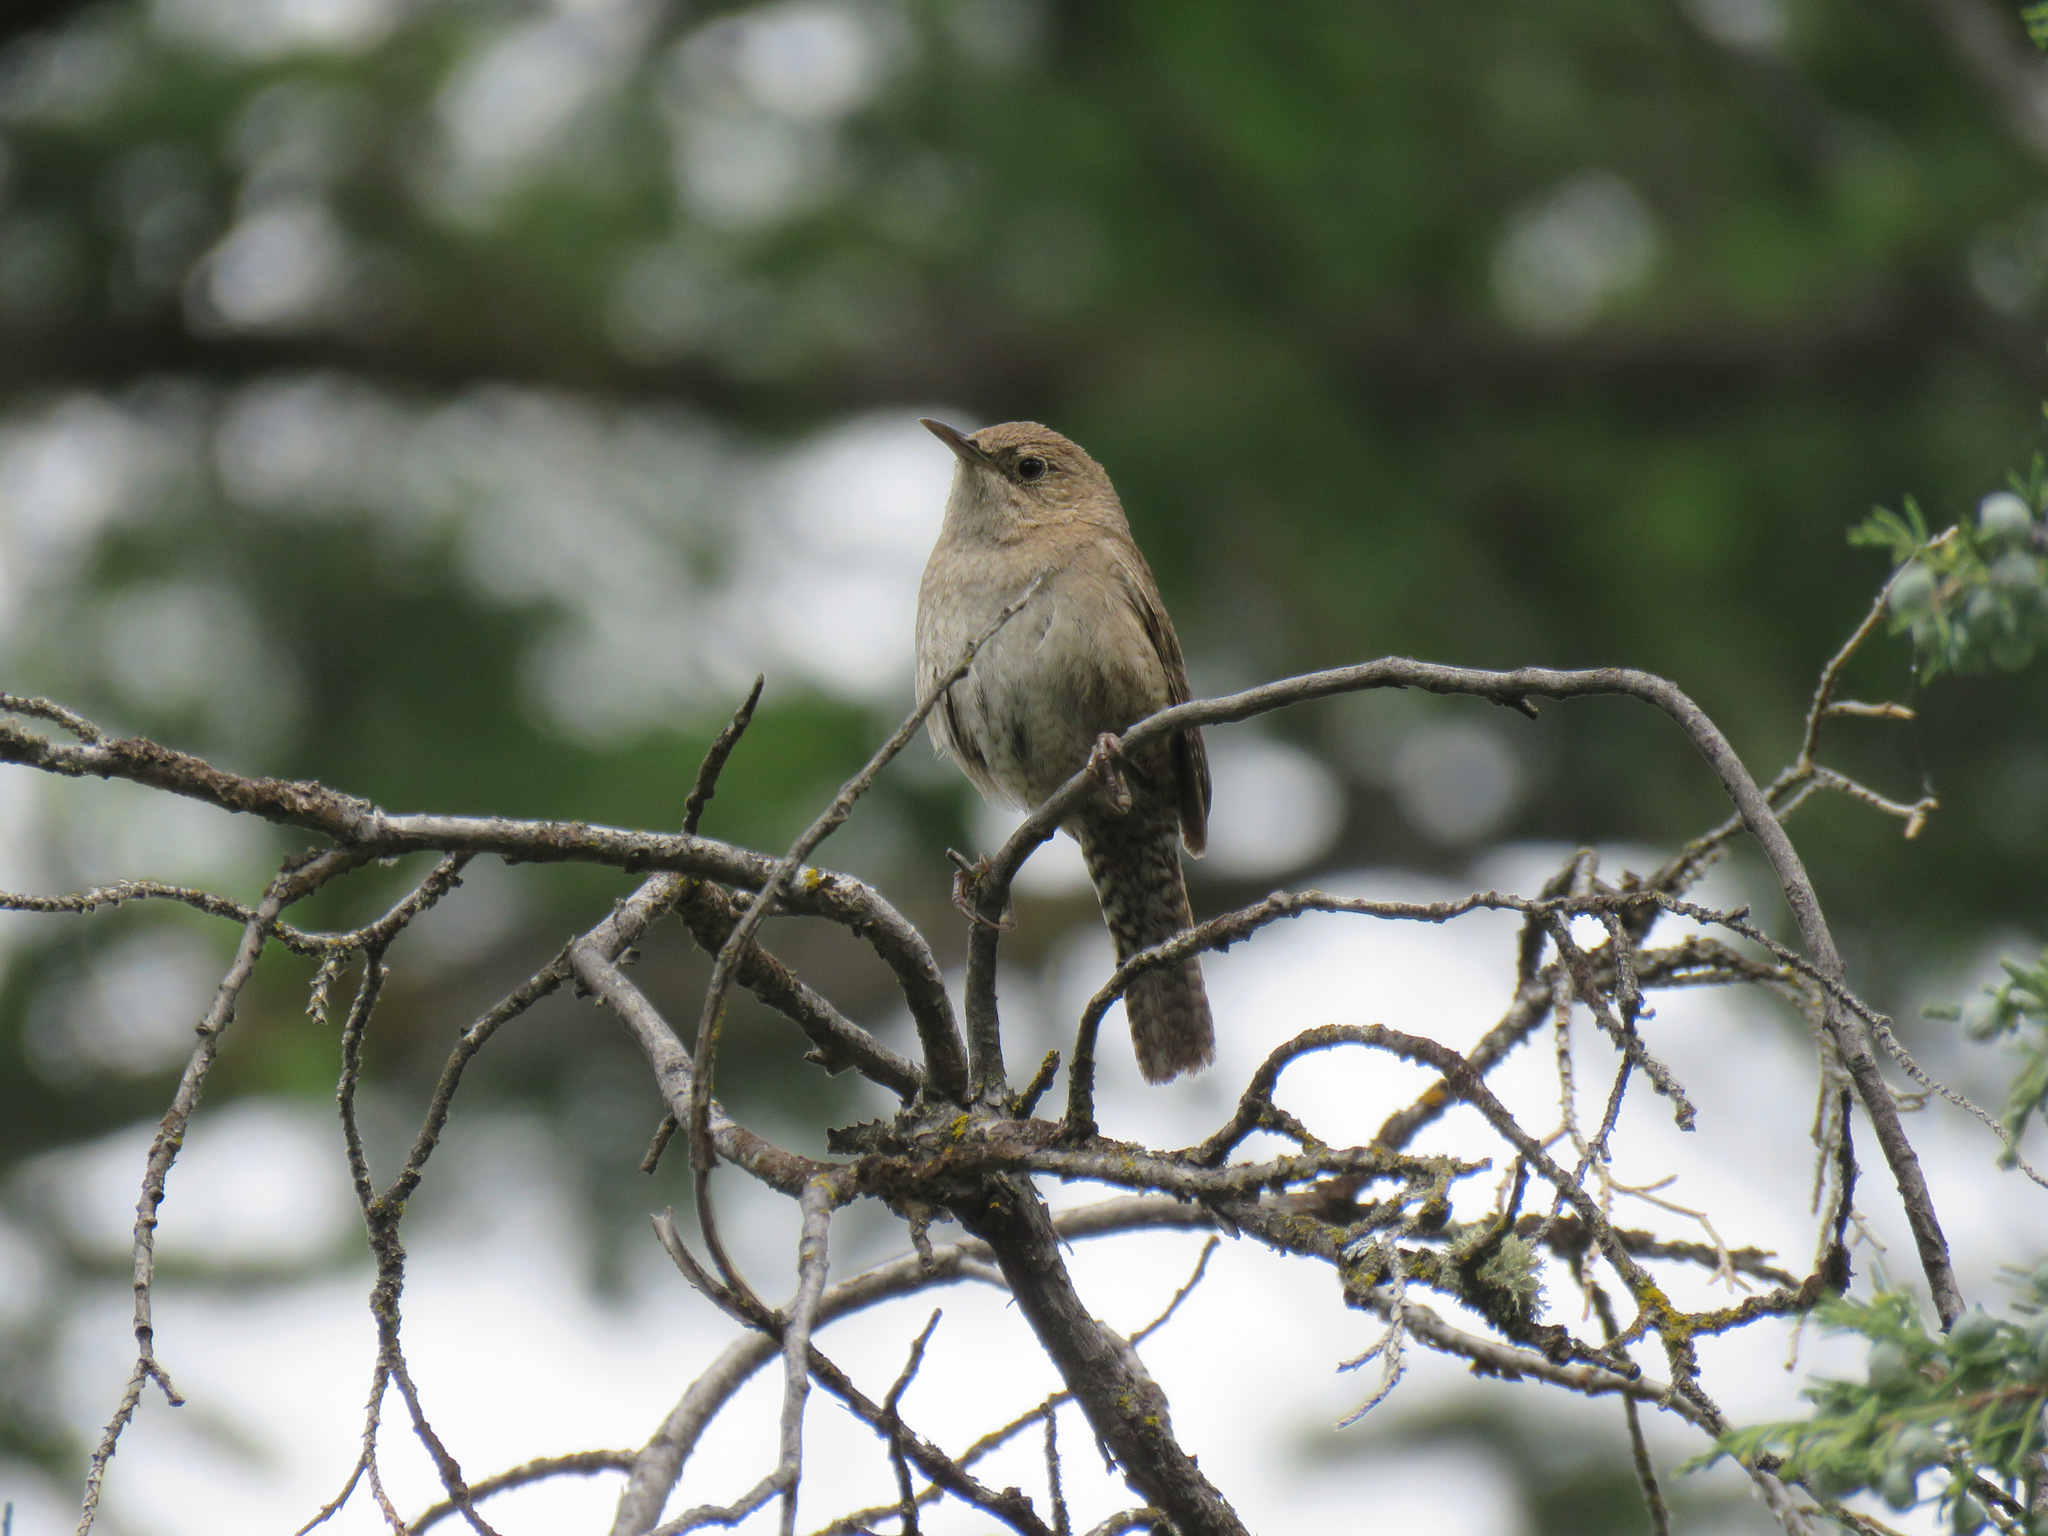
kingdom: Animalia
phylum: Chordata
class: Aves
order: Passeriformes
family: Troglodytidae
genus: Troglodytes
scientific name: Troglodytes aedon
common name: House wren
